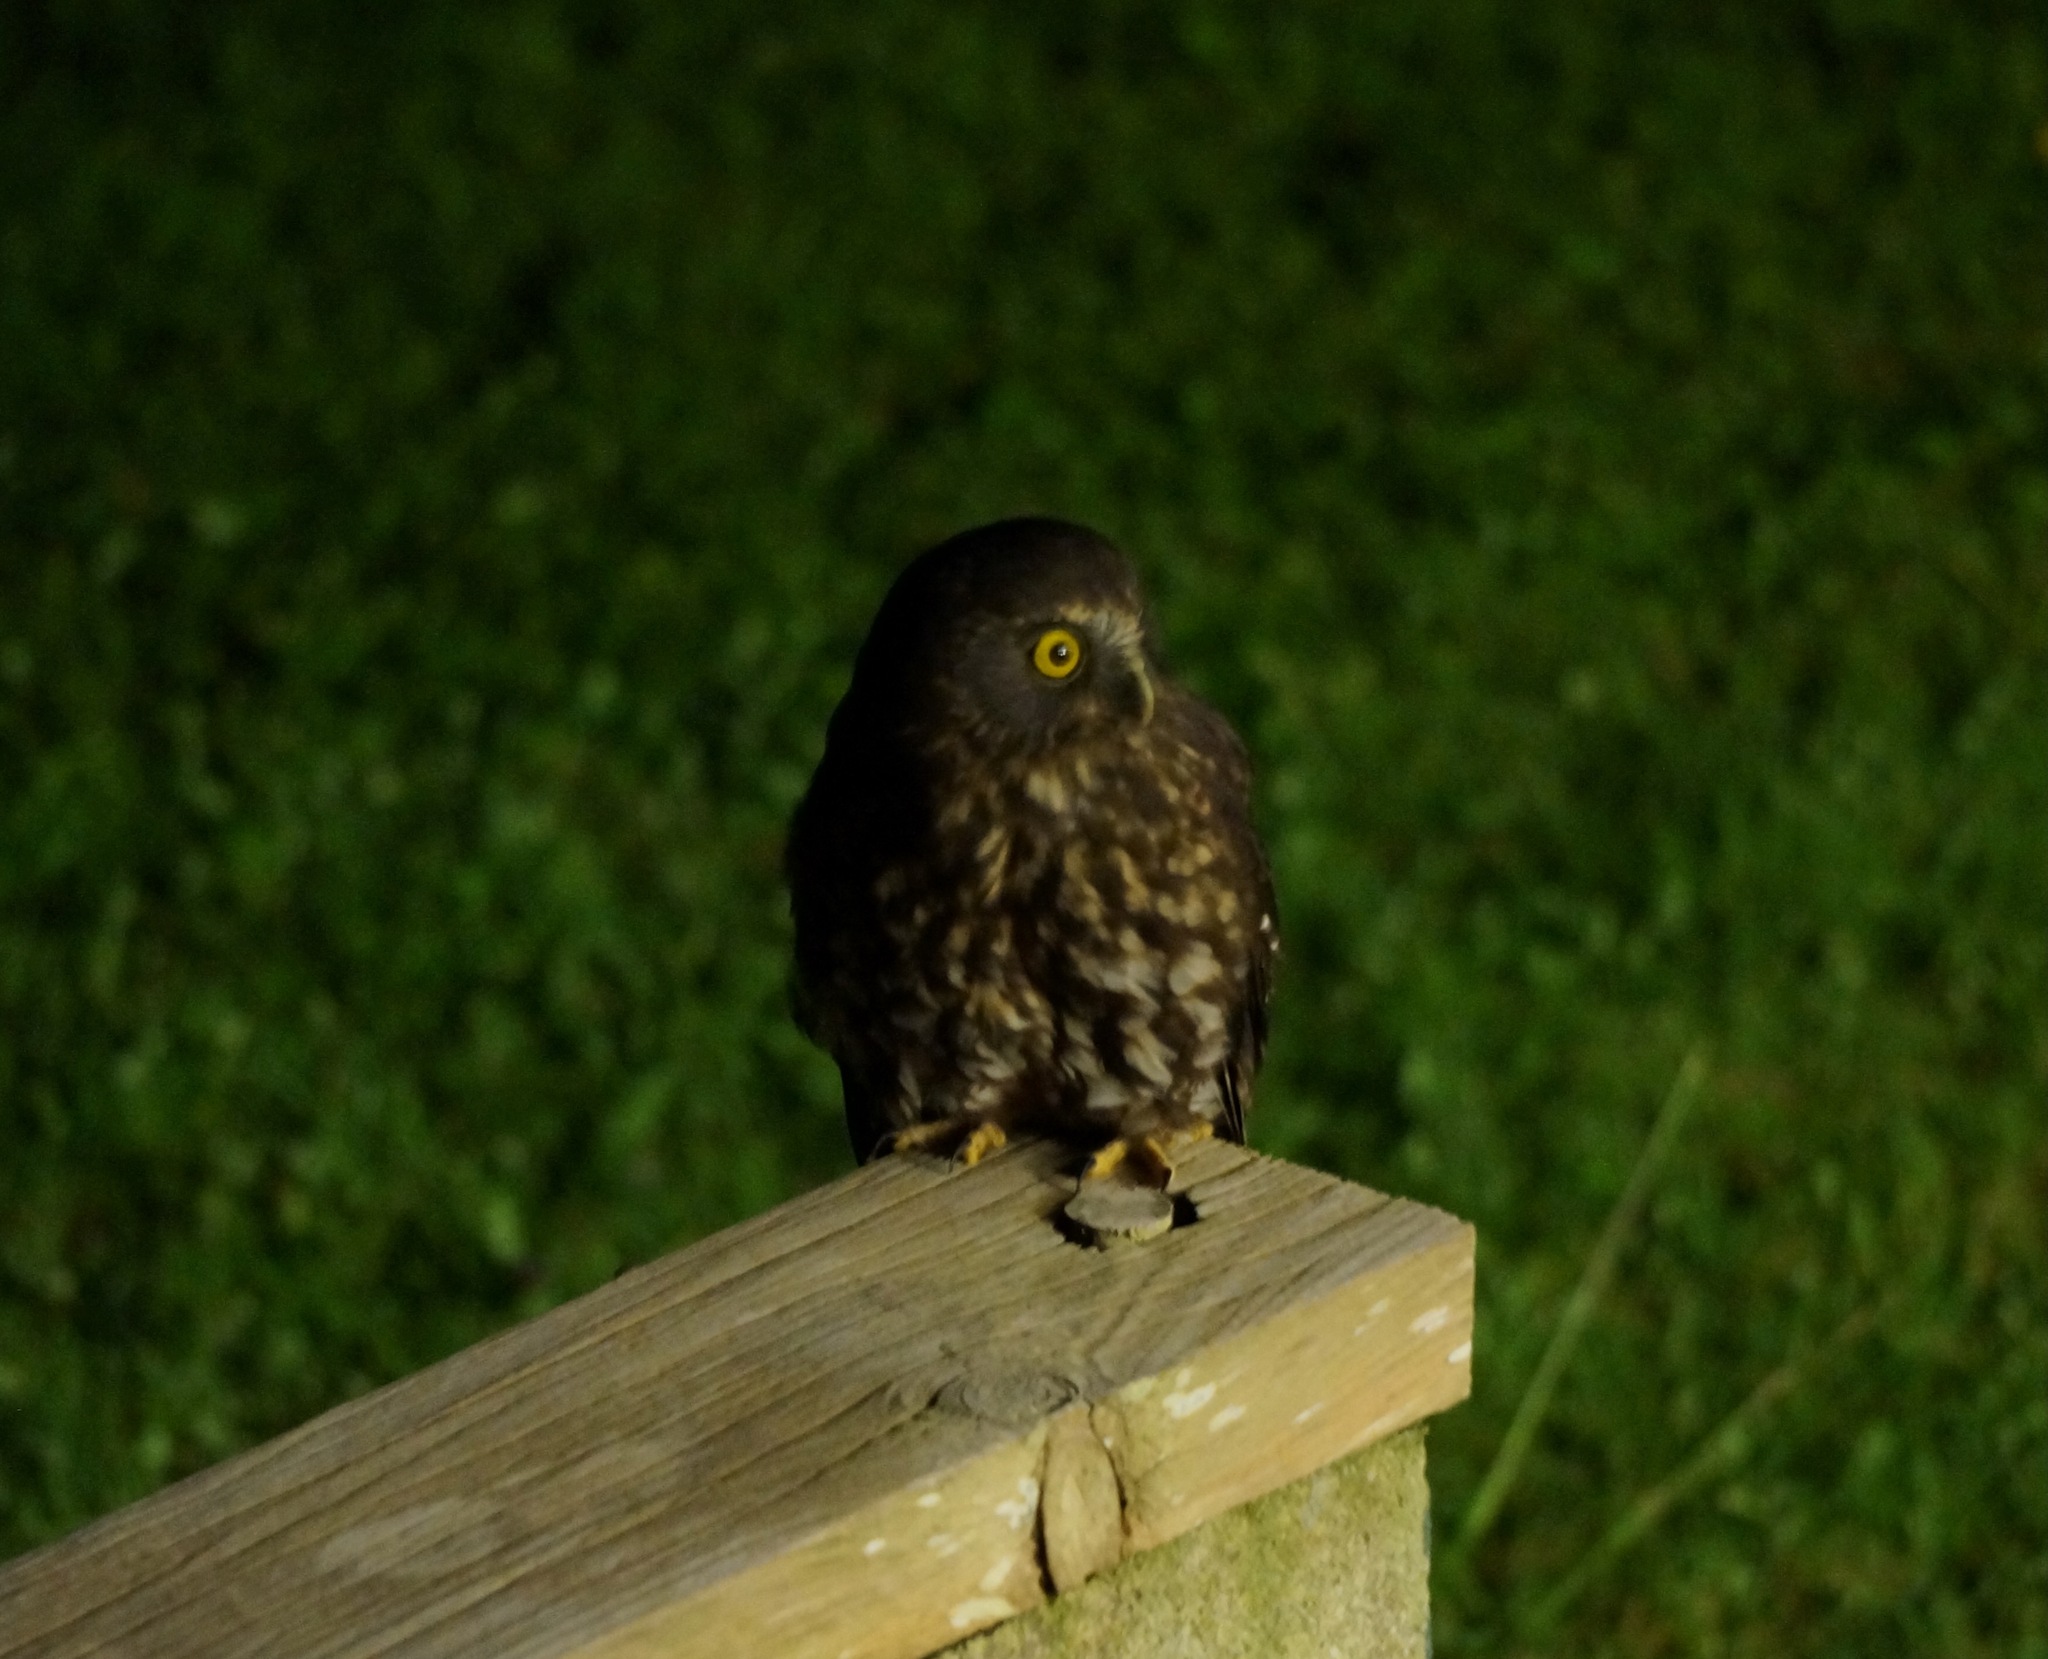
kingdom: Animalia
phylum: Chordata
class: Aves
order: Strigiformes
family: Strigidae
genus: Ninox
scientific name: Ninox novaeseelandiae
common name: Morepork
